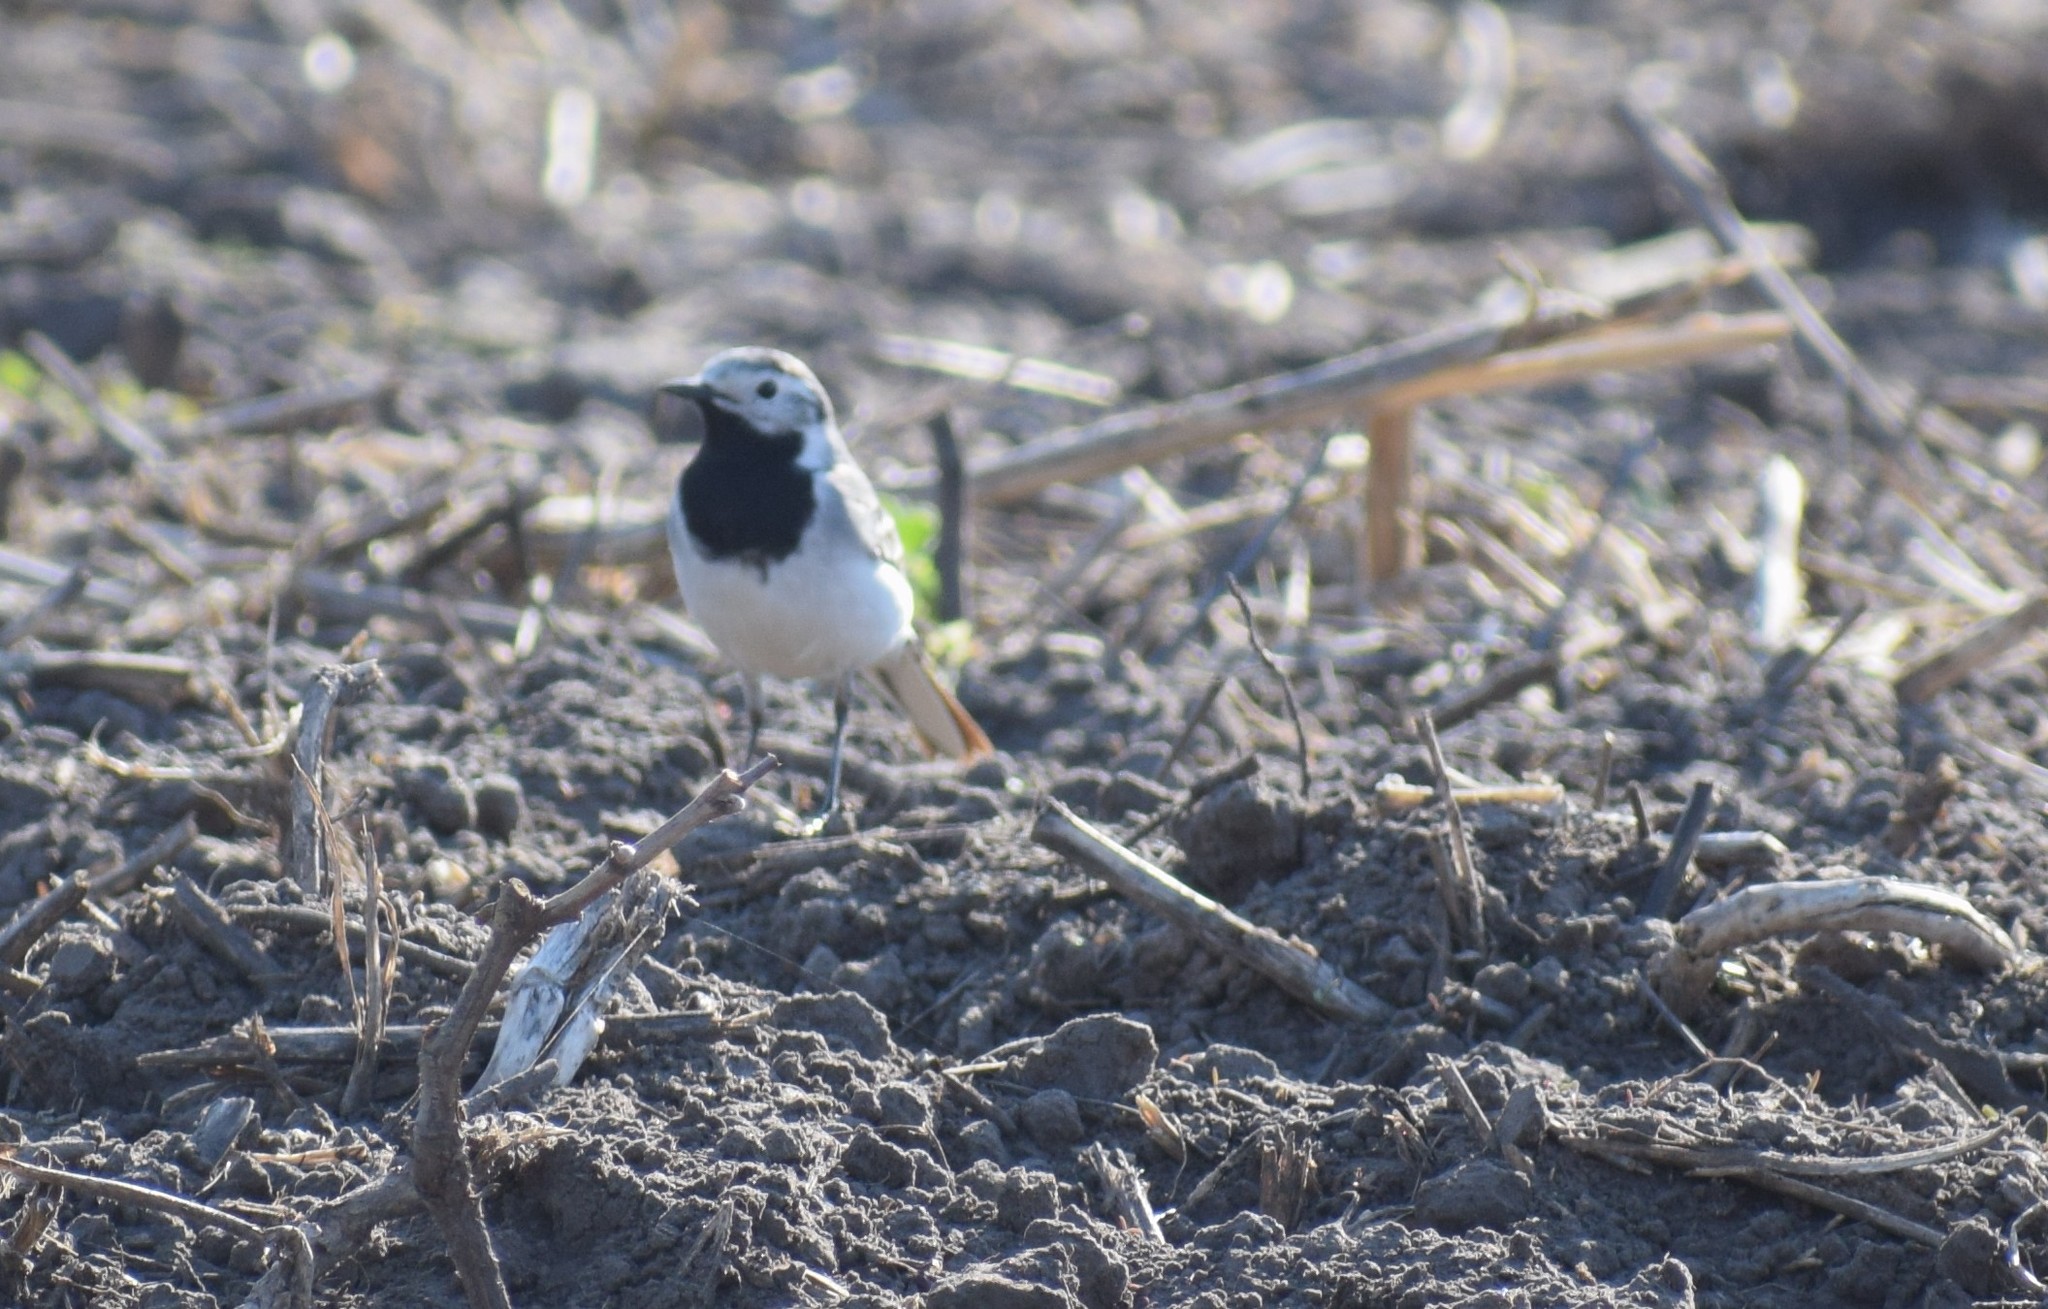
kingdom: Animalia
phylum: Chordata
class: Aves
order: Passeriformes
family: Motacillidae
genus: Motacilla
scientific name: Motacilla alba
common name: White wagtail
